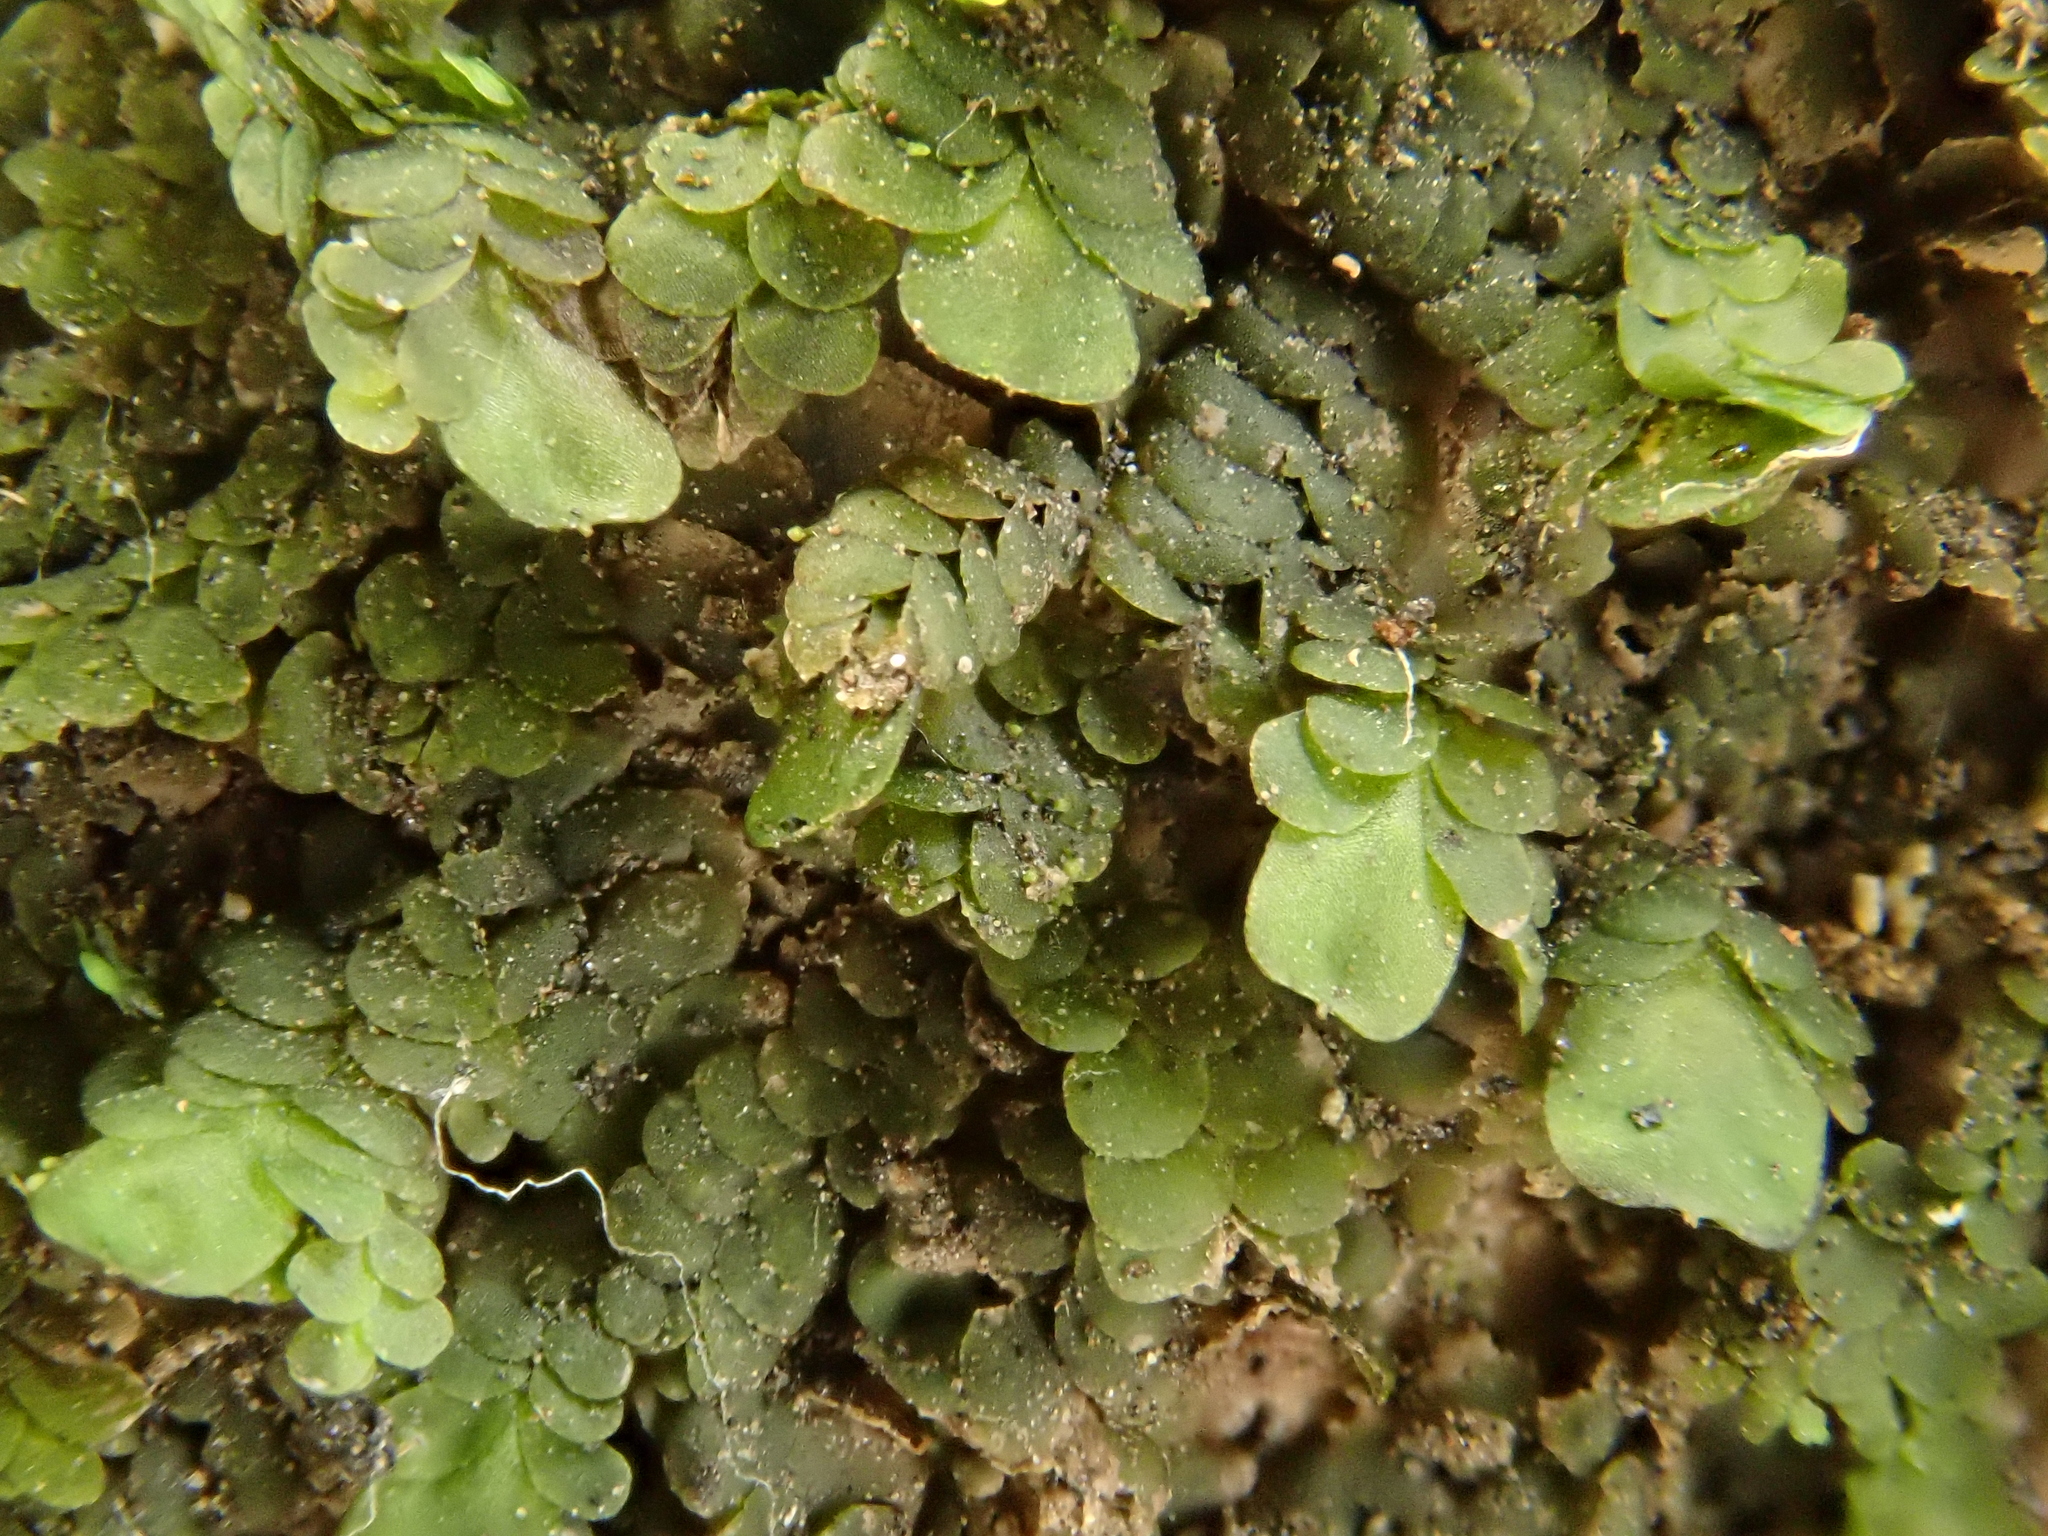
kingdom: Plantae
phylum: Marchantiophyta
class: Jungermanniopsida
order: Porellales
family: Lejeuneaceae
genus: Marchesinia
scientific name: Marchesinia mackaii
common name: Mackay's pouncewort
